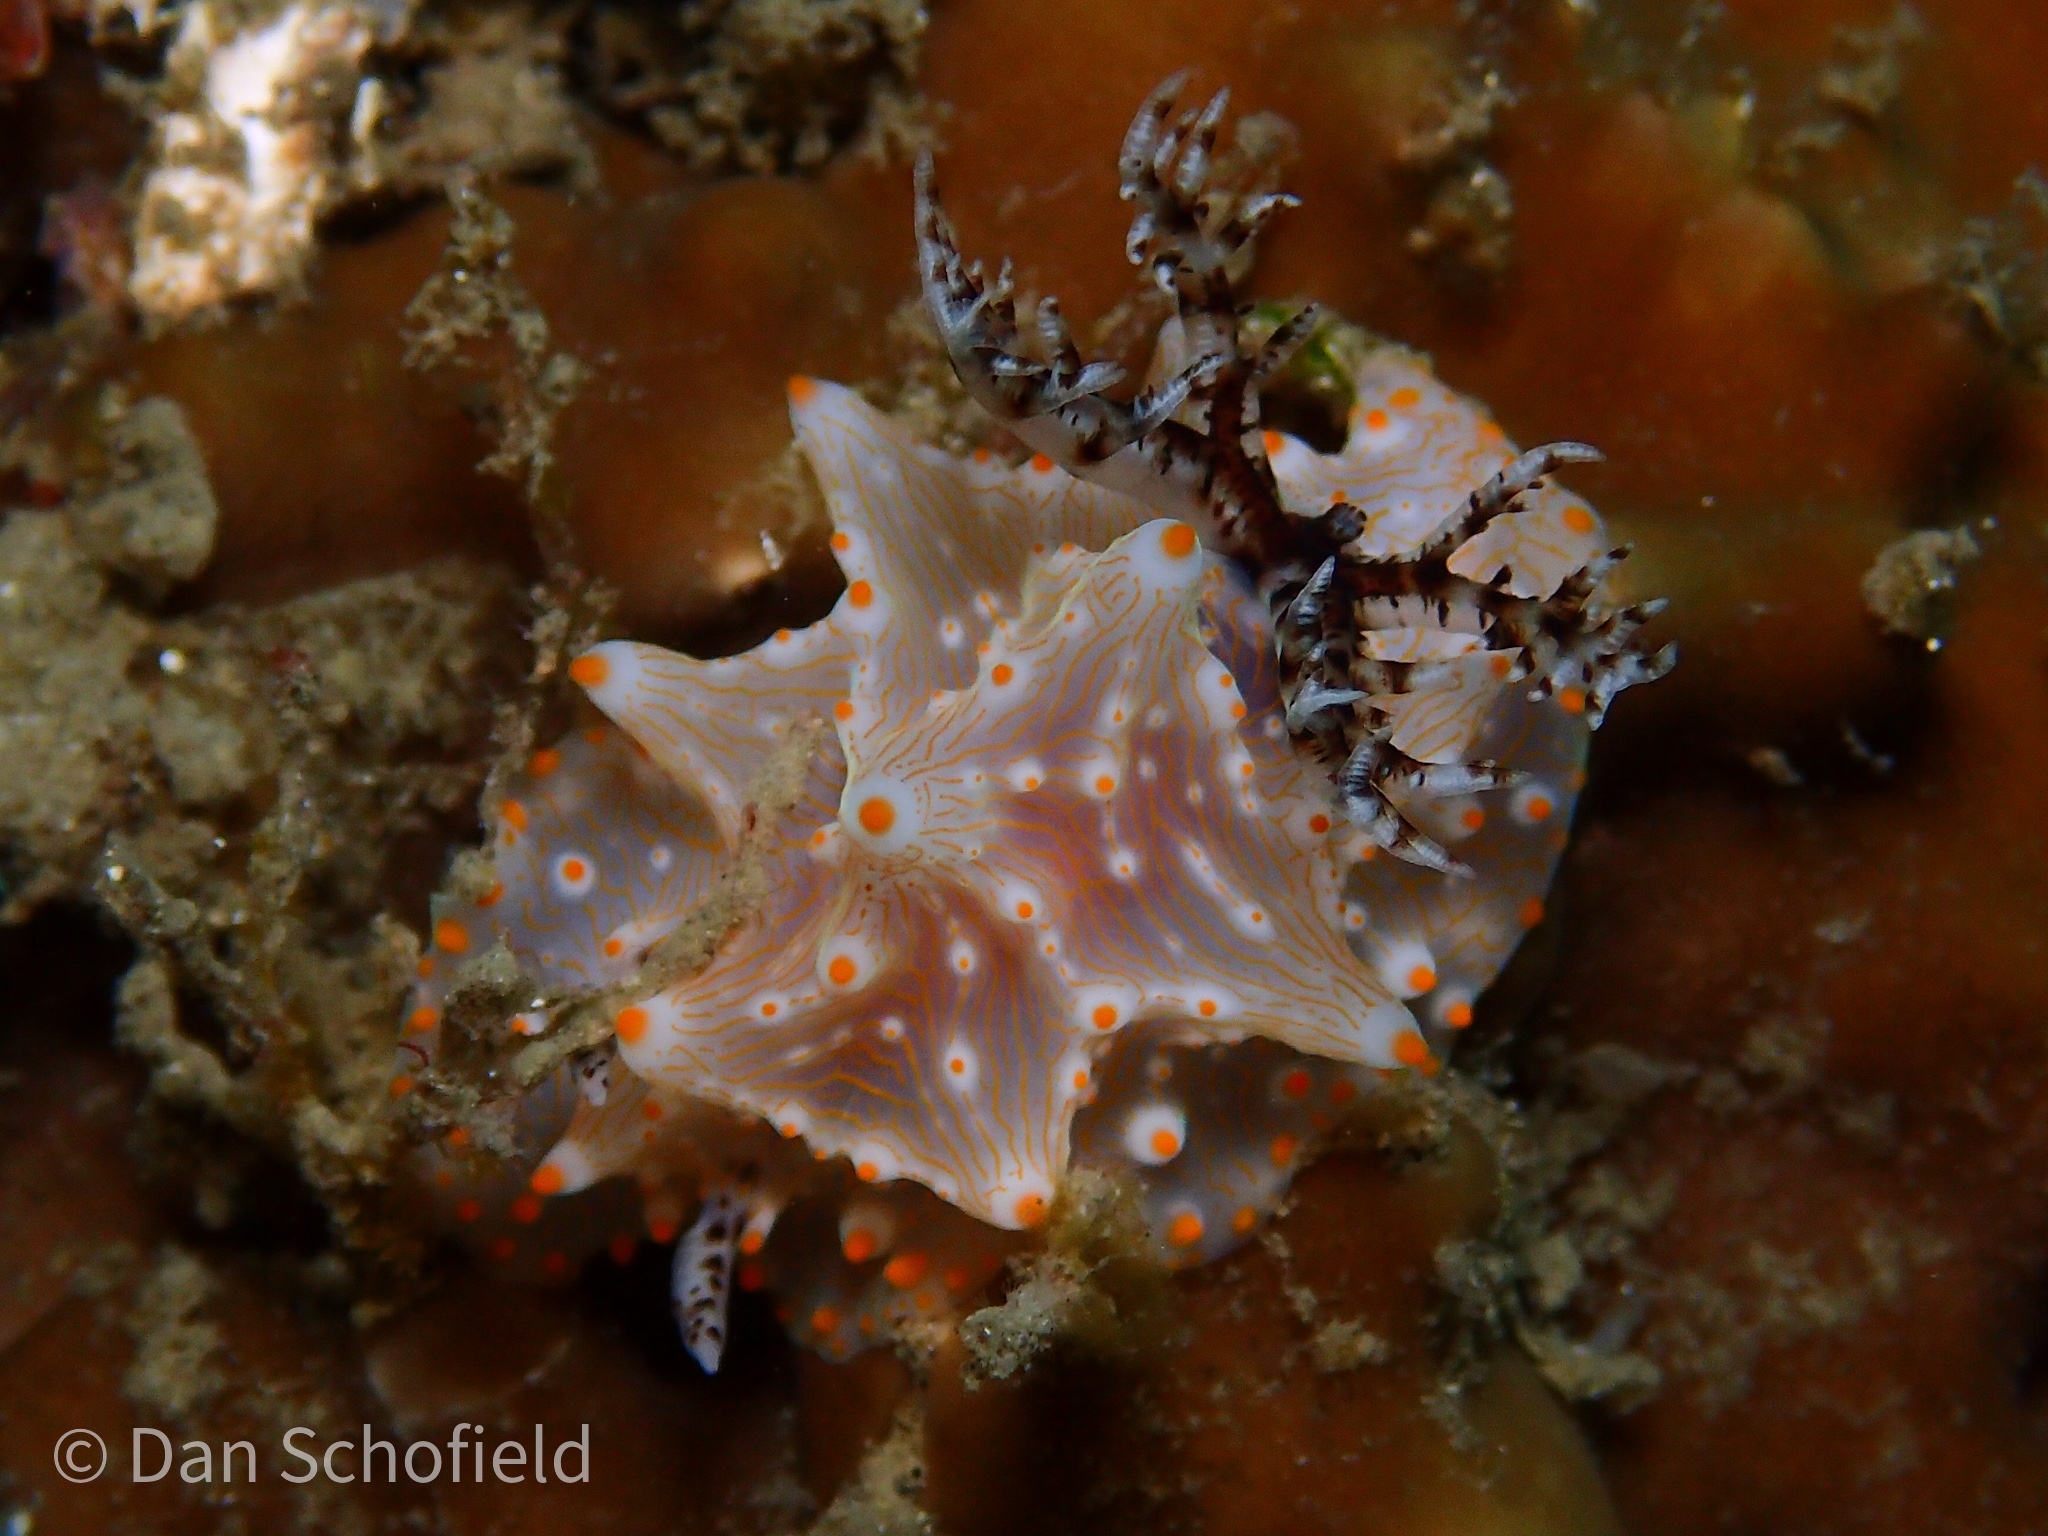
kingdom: Animalia
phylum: Mollusca
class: Gastropoda
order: Nudibranchia
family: Discodorididae
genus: Halgerda
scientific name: Halgerda batangas
